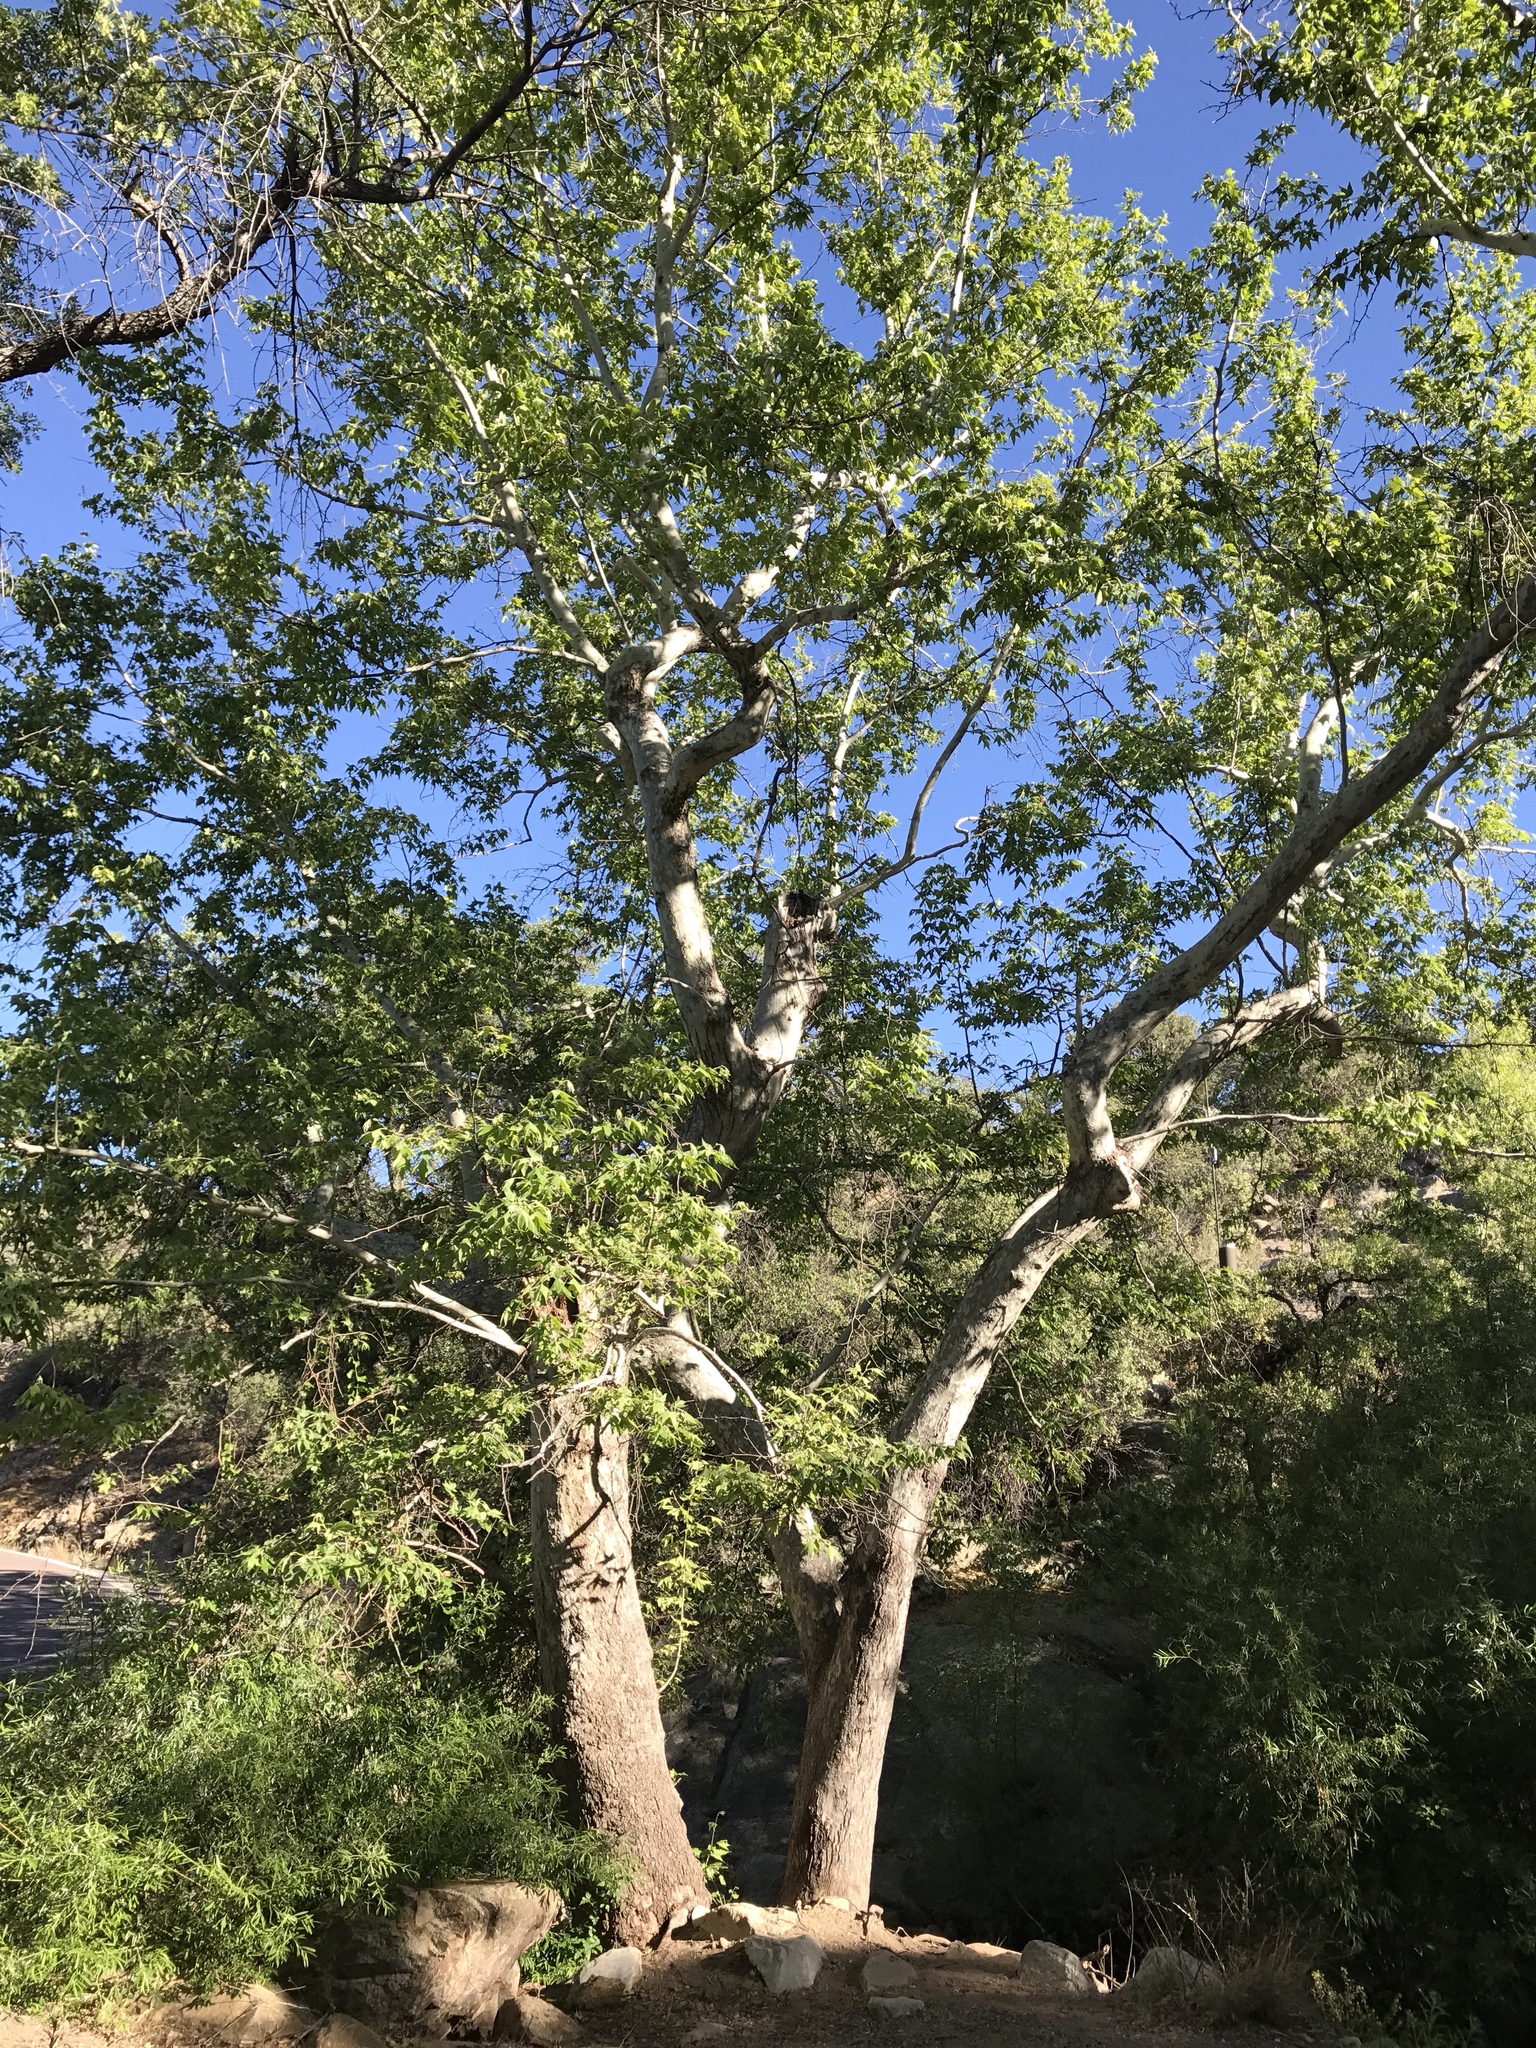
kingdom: Plantae
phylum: Tracheophyta
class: Magnoliopsida
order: Proteales
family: Platanaceae
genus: Platanus
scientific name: Platanus wrightii
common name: Arizona sycamore
